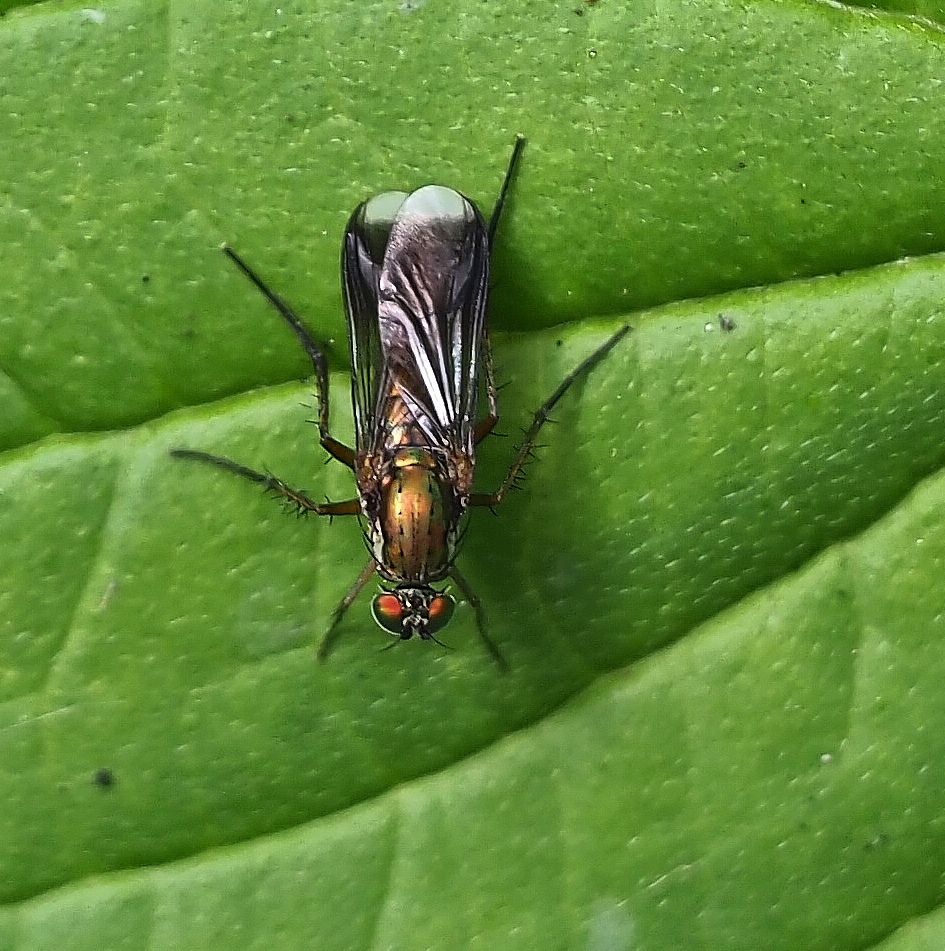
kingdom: Animalia
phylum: Arthropoda
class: Insecta
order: Diptera
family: Dolichopodidae
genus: Poecilobothrus
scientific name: Poecilobothrus nobilitatus
